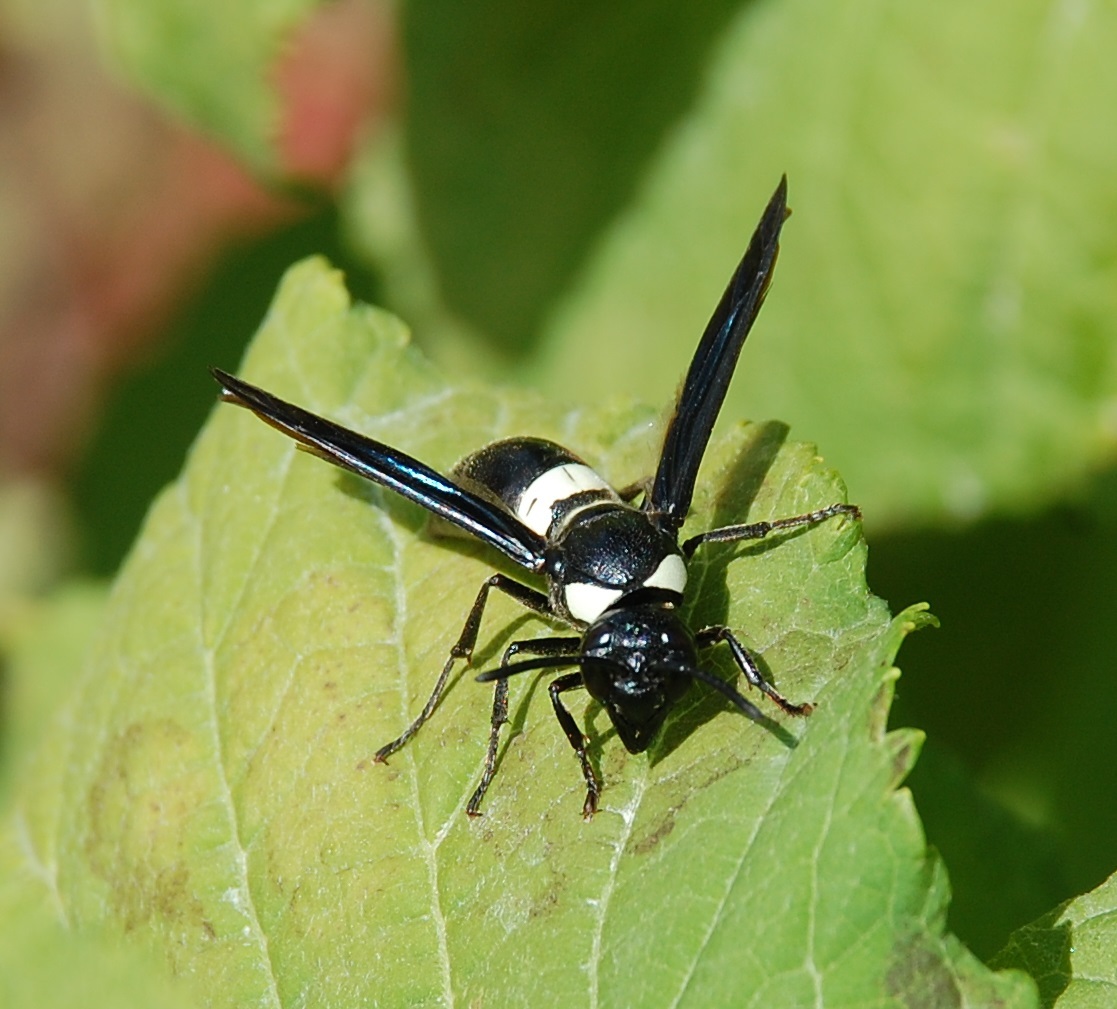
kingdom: Animalia
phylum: Arthropoda
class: Insecta
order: Hymenoptera
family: Eumenidae
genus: Monobia
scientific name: Monobia quadridens
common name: Four-toothed mason wasp
